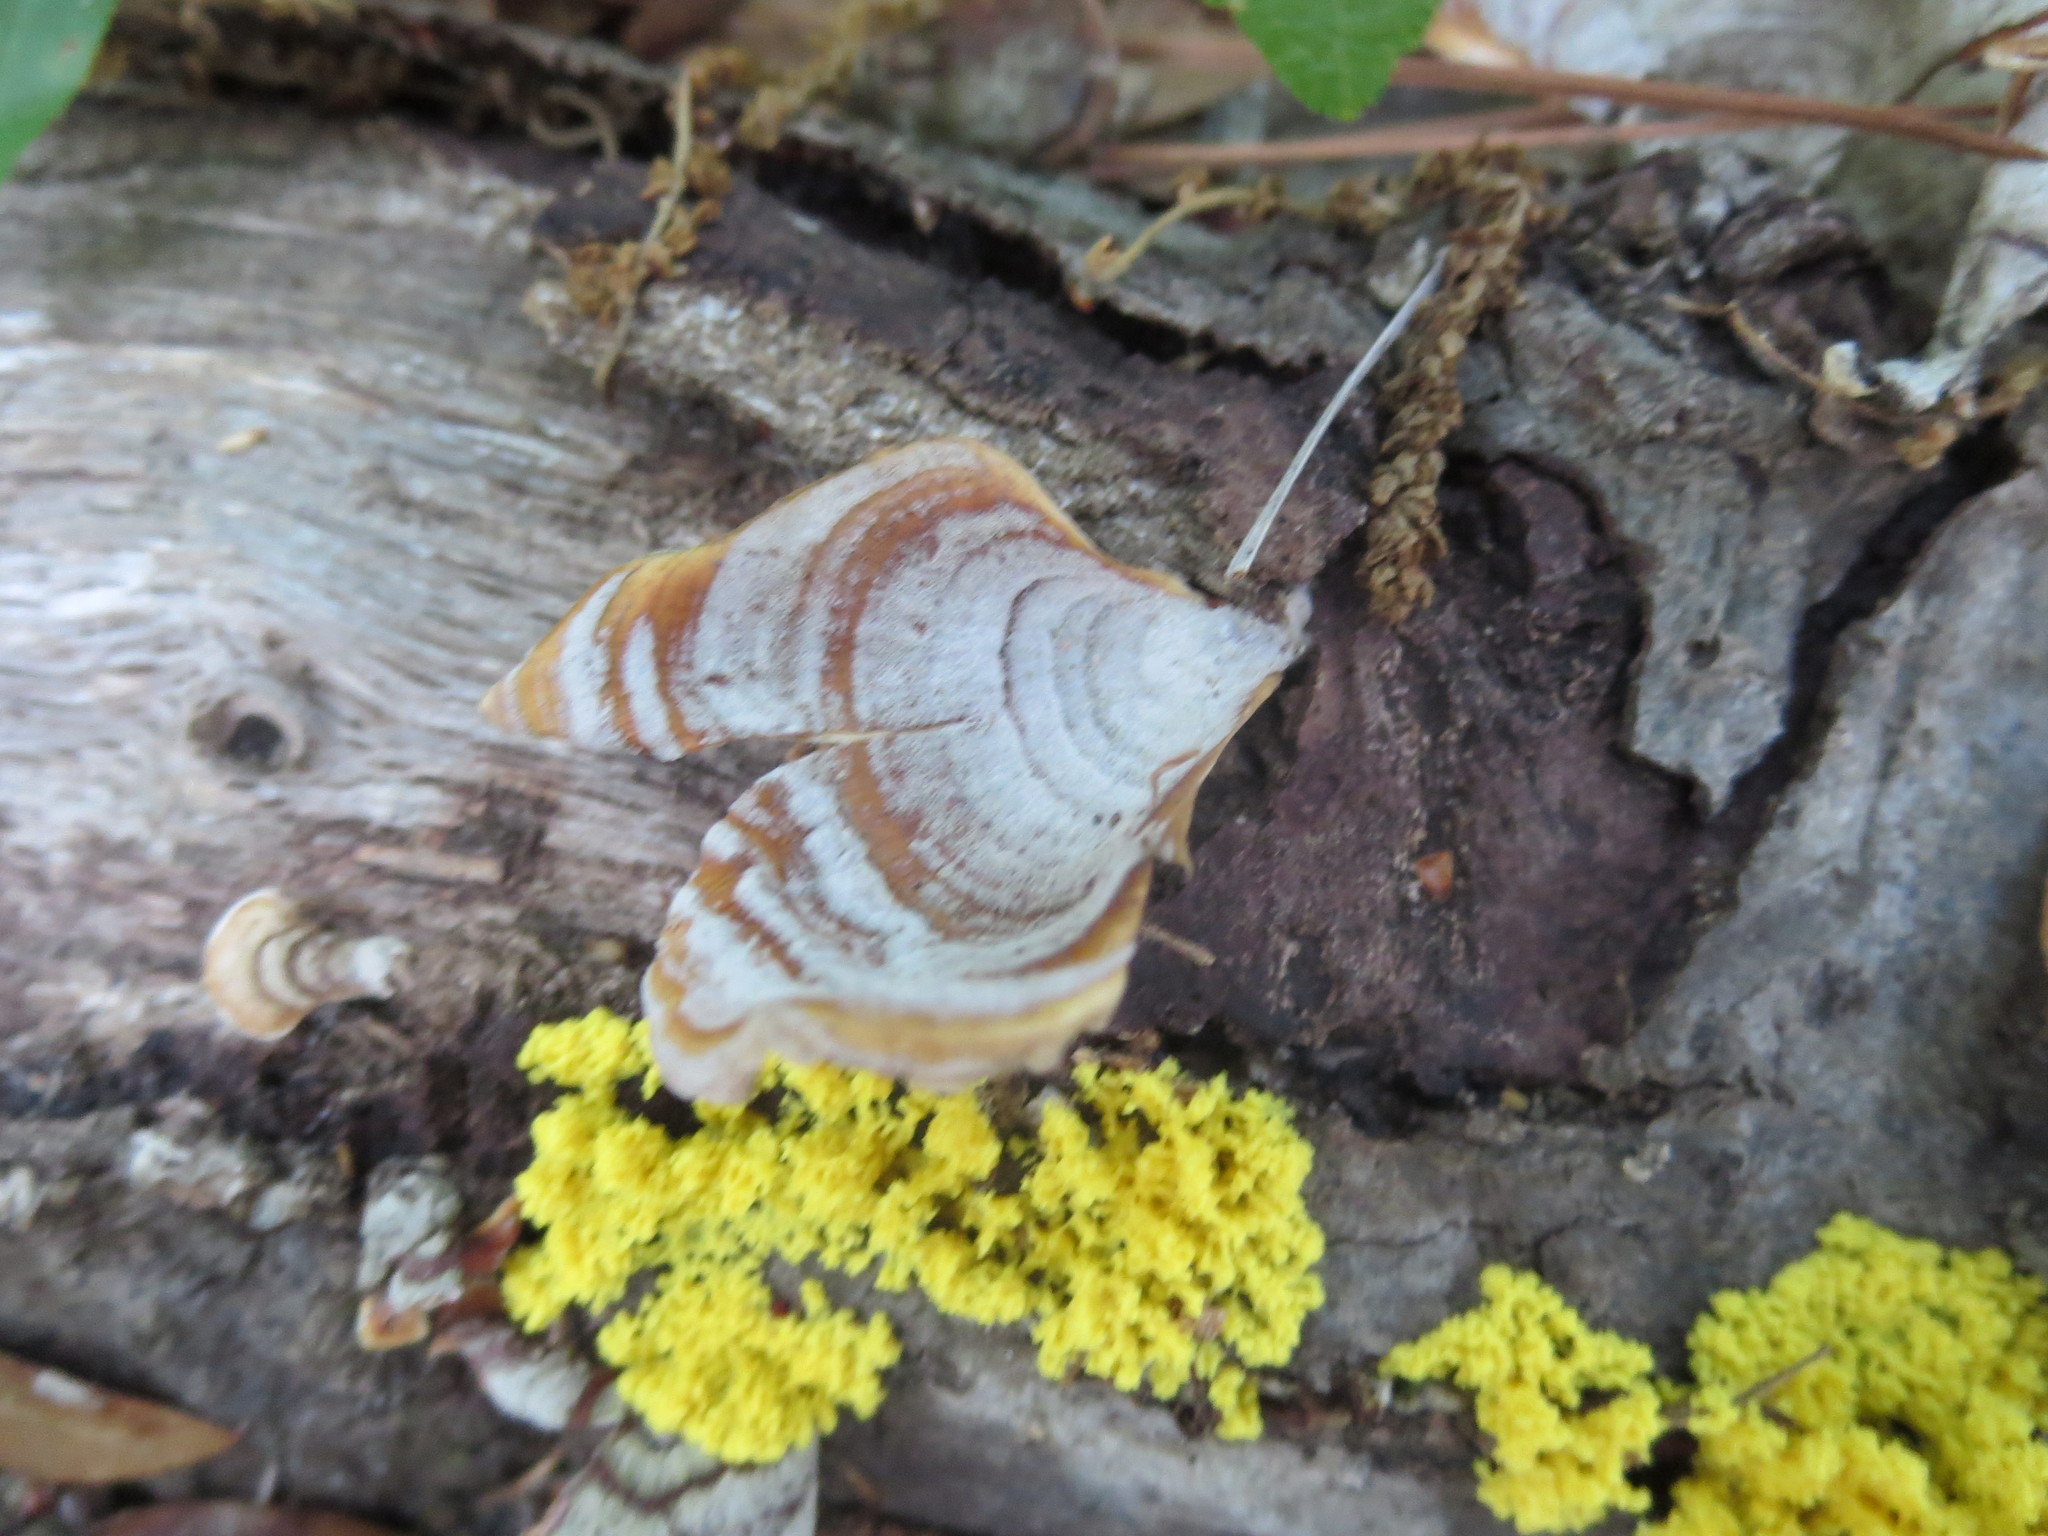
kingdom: Fungi
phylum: Basidiomycota
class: Agaricomycetes
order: Russulales
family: Stereaceae
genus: Stereum
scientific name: Stereum lobatum
